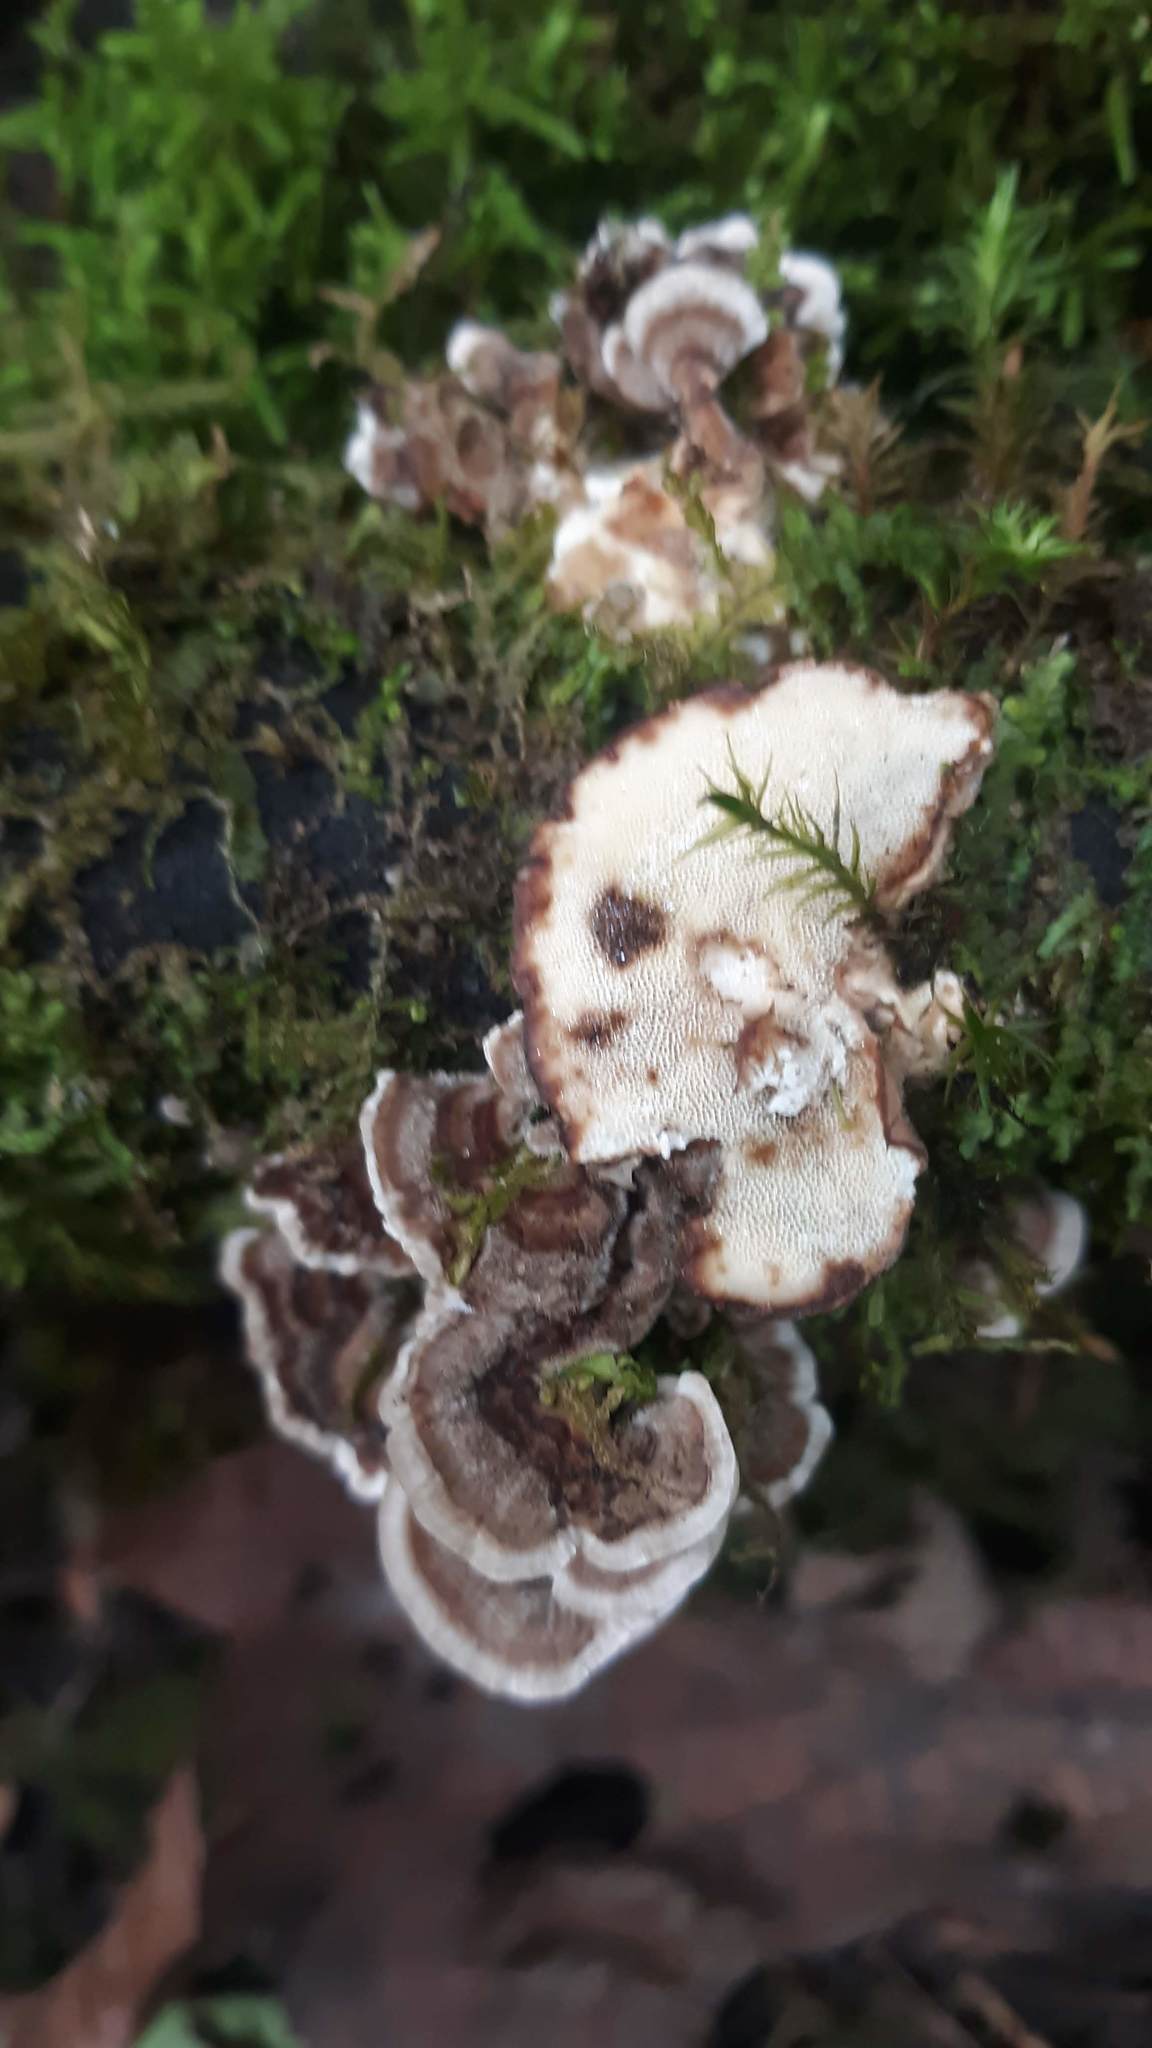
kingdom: Fungi
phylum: Basidiomycota
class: Agaricomycetes
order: Polyporales
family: Polyporaceae
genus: Trametes
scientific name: Trametes versicolor
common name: Turkeytail
